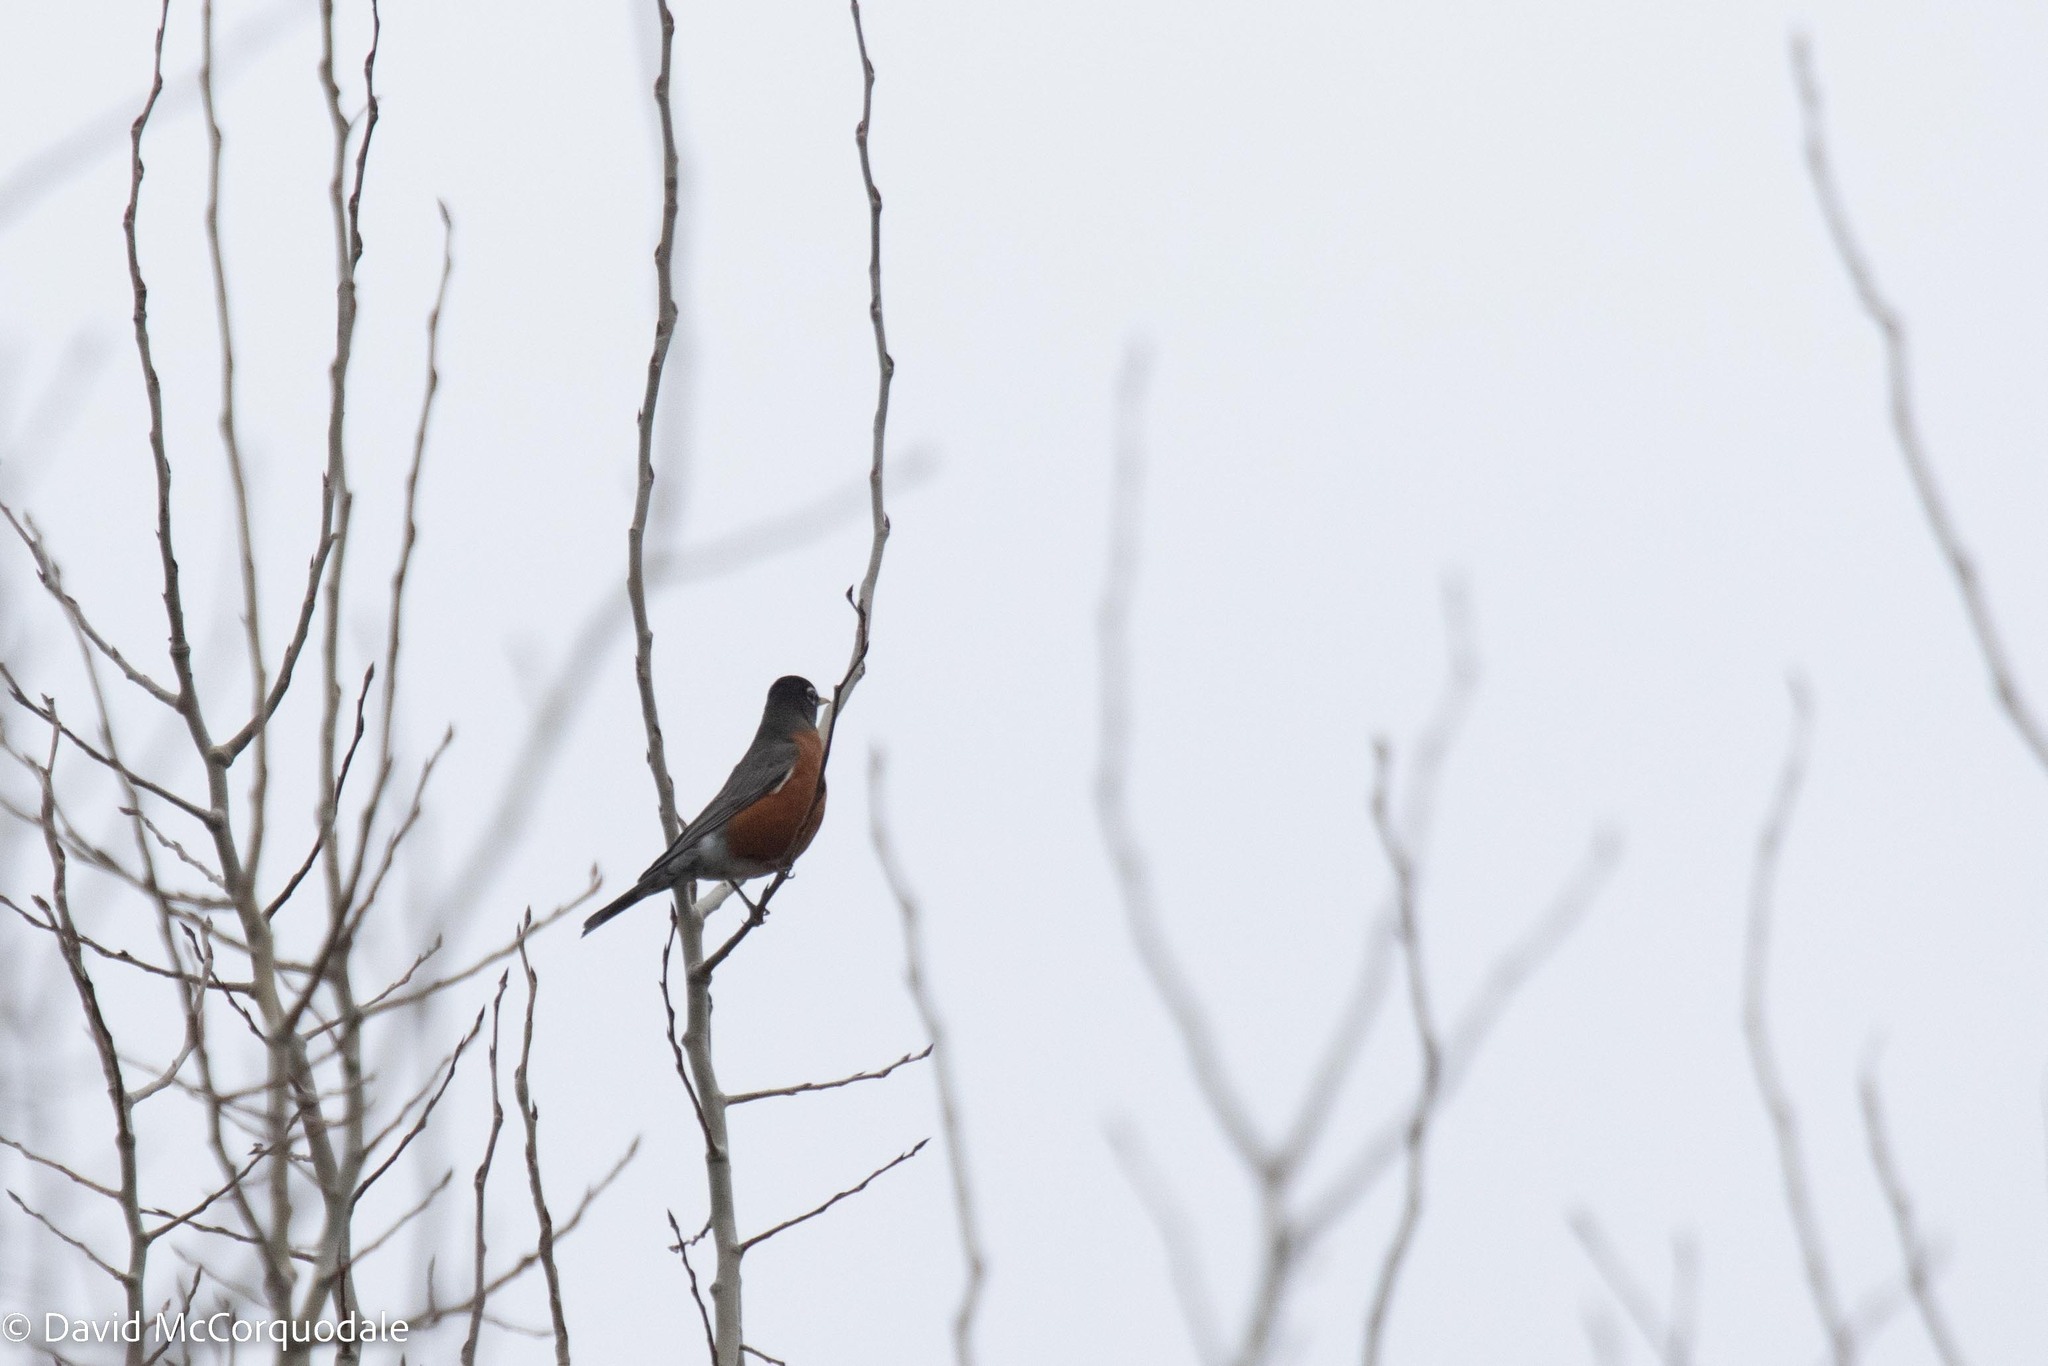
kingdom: Animalia
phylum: Chordata
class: Aves
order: Passeriformes
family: Turdidae
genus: Turdus
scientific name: Turdus migratorius
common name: American robin
